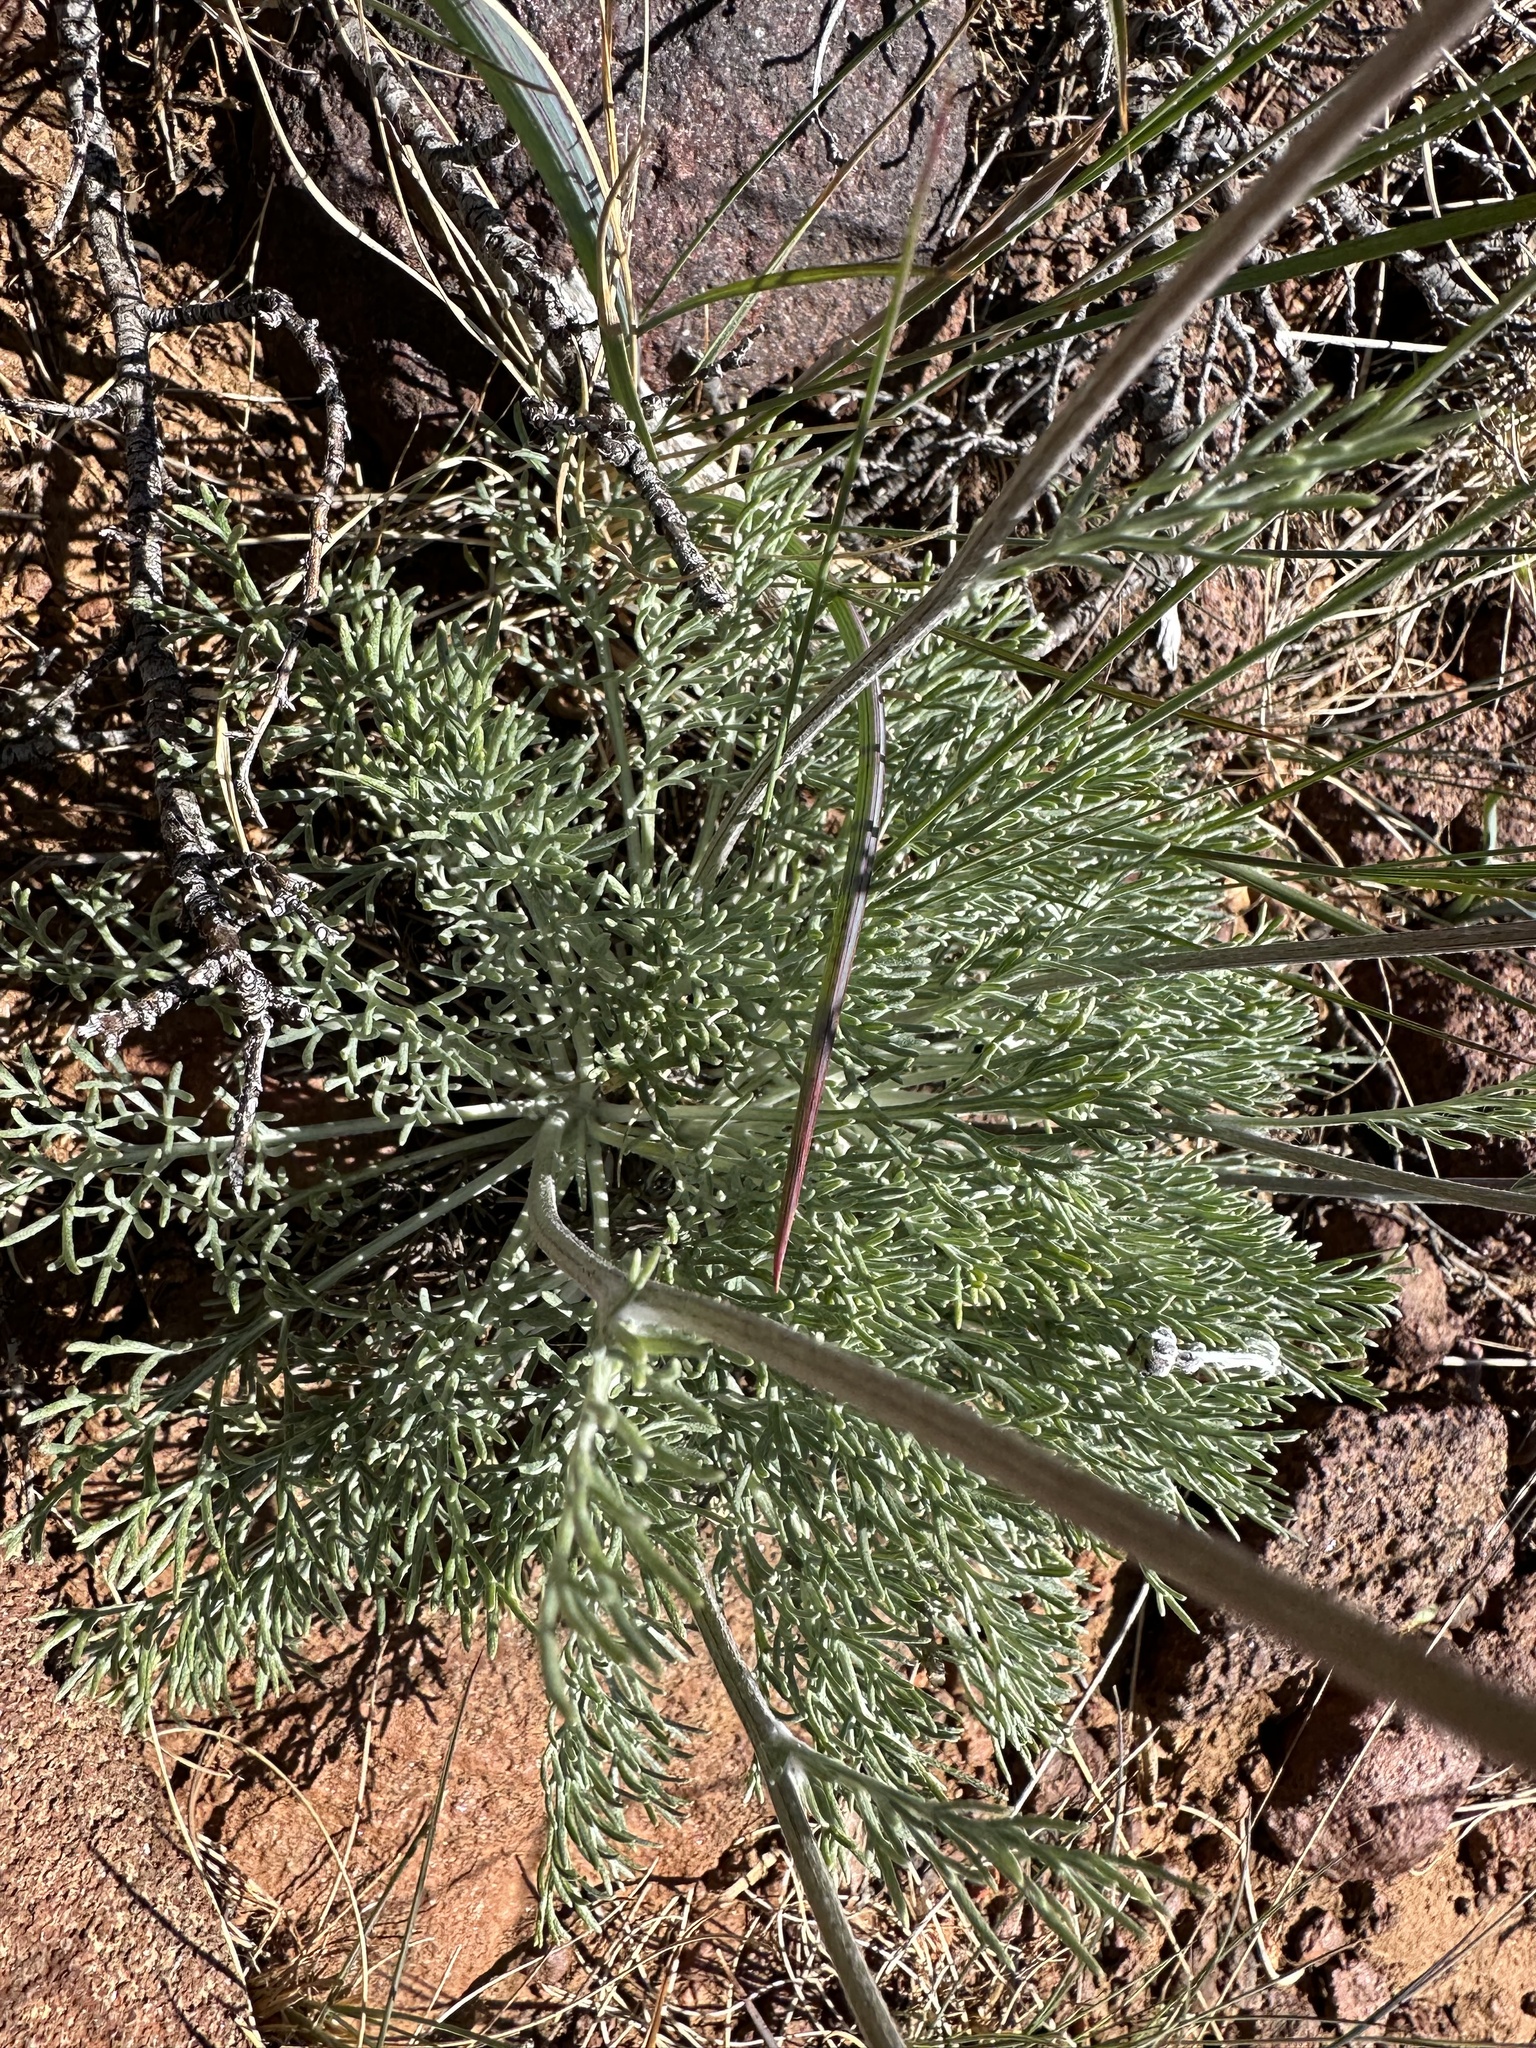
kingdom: Plantae
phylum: Tracheophyta
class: Magnoliopsida
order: Asterales
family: Asteraceae
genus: Hymenopappus
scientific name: Hymenopappus filifolius
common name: Columbia cutleaf
